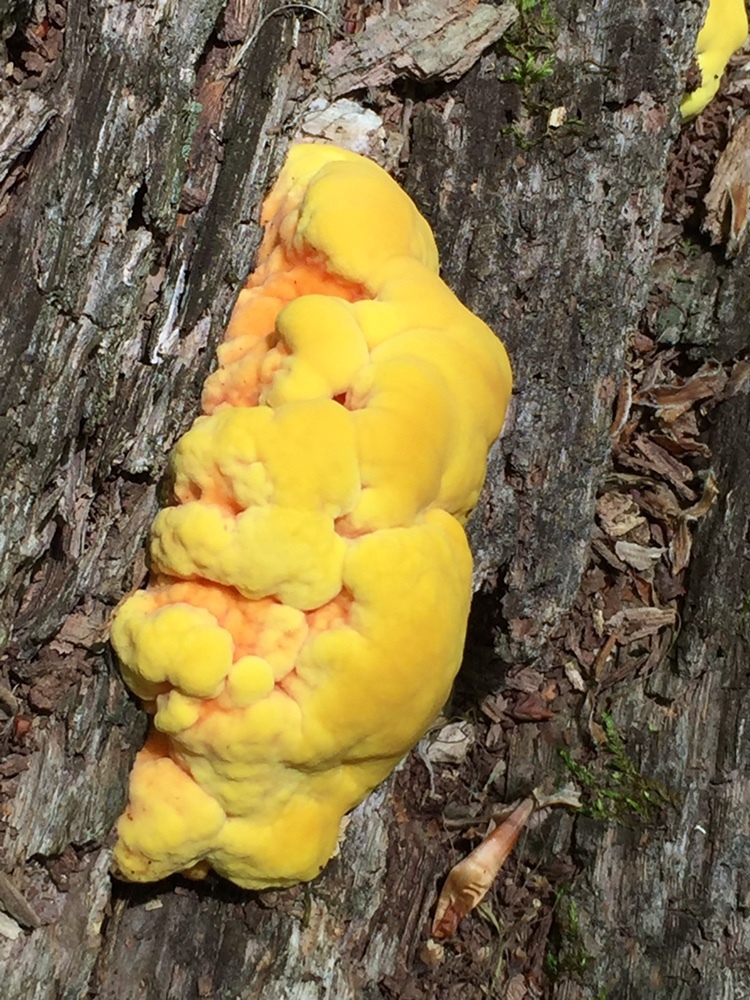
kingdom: Fungi
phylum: Basidiomycota
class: Agaricomycetes
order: Polyporales
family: Laetiporaceae
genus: Laetiporus
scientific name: Laetiporus sulphureus
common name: Chicken of the woods
